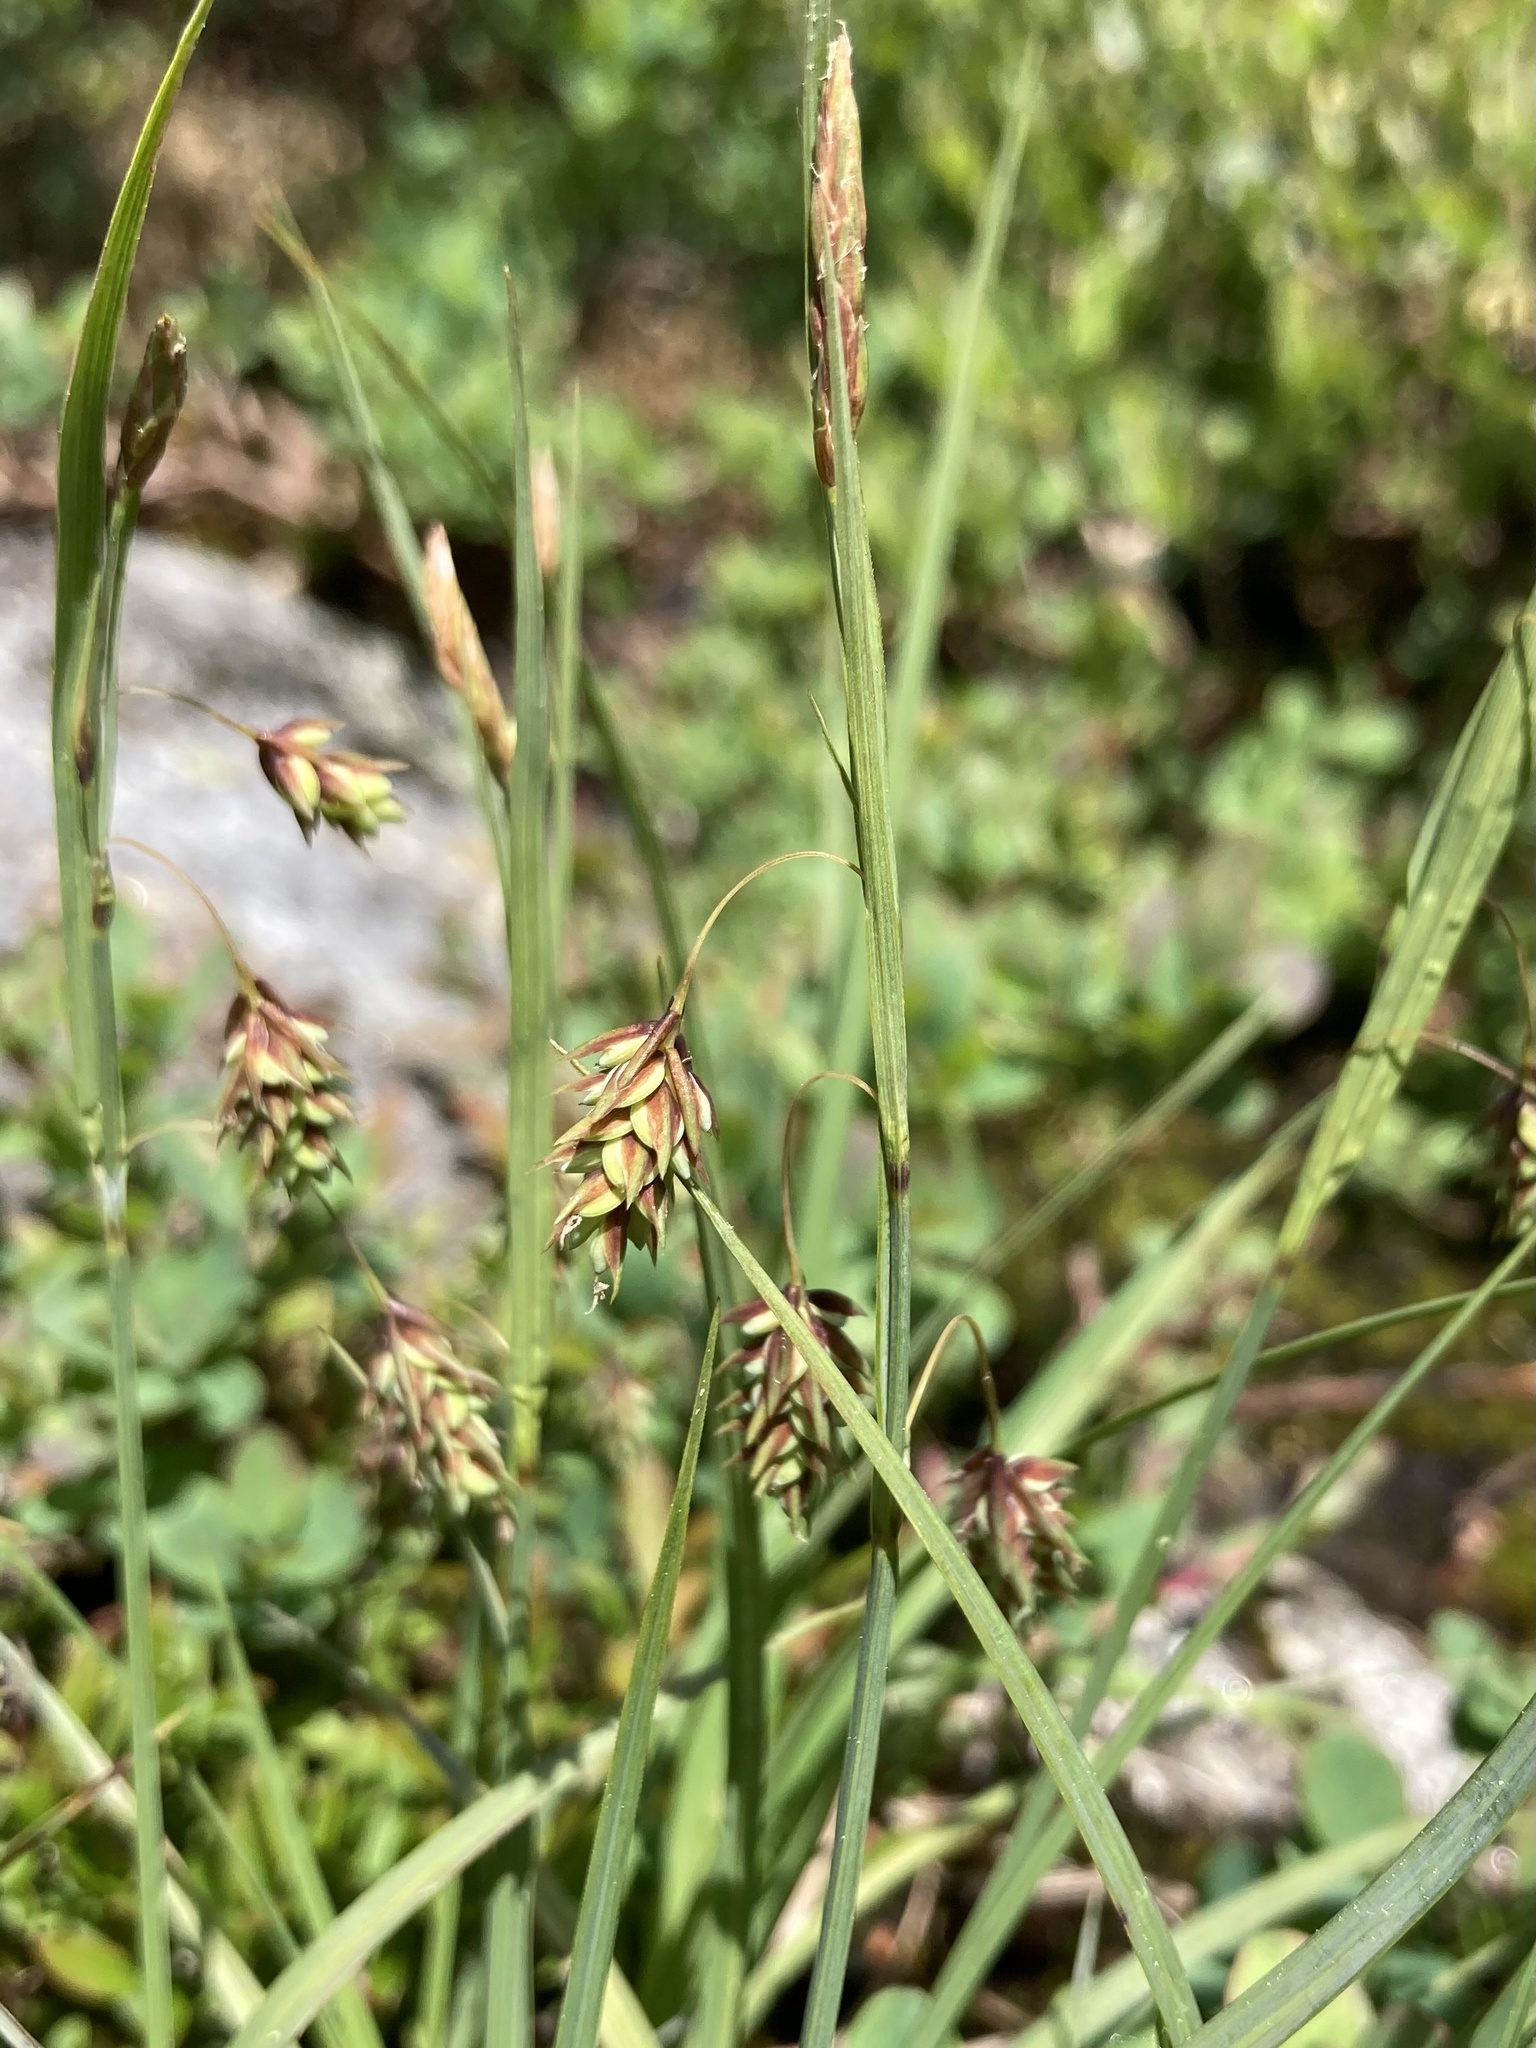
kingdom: Plantae
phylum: Tracheophyta
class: Liliopsida
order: Poales
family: Cyperaceae
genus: Carex
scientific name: Carex magellanica
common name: Bog sedge
